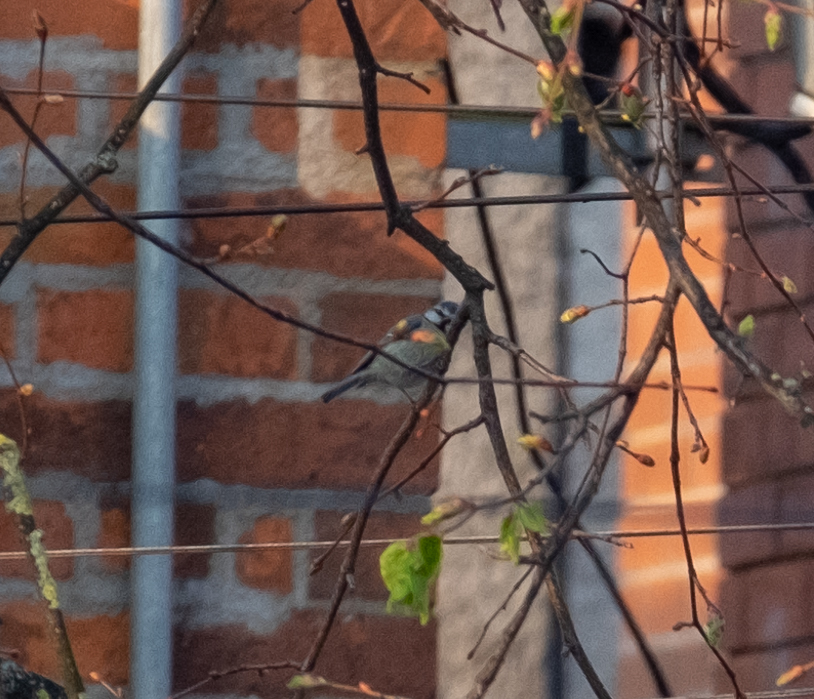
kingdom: Animalia
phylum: Chordata
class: Aves
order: Passeriformes
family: Paridae
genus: Cyanistes
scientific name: Cyanistes caeruleus
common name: Eurasian blue tit
